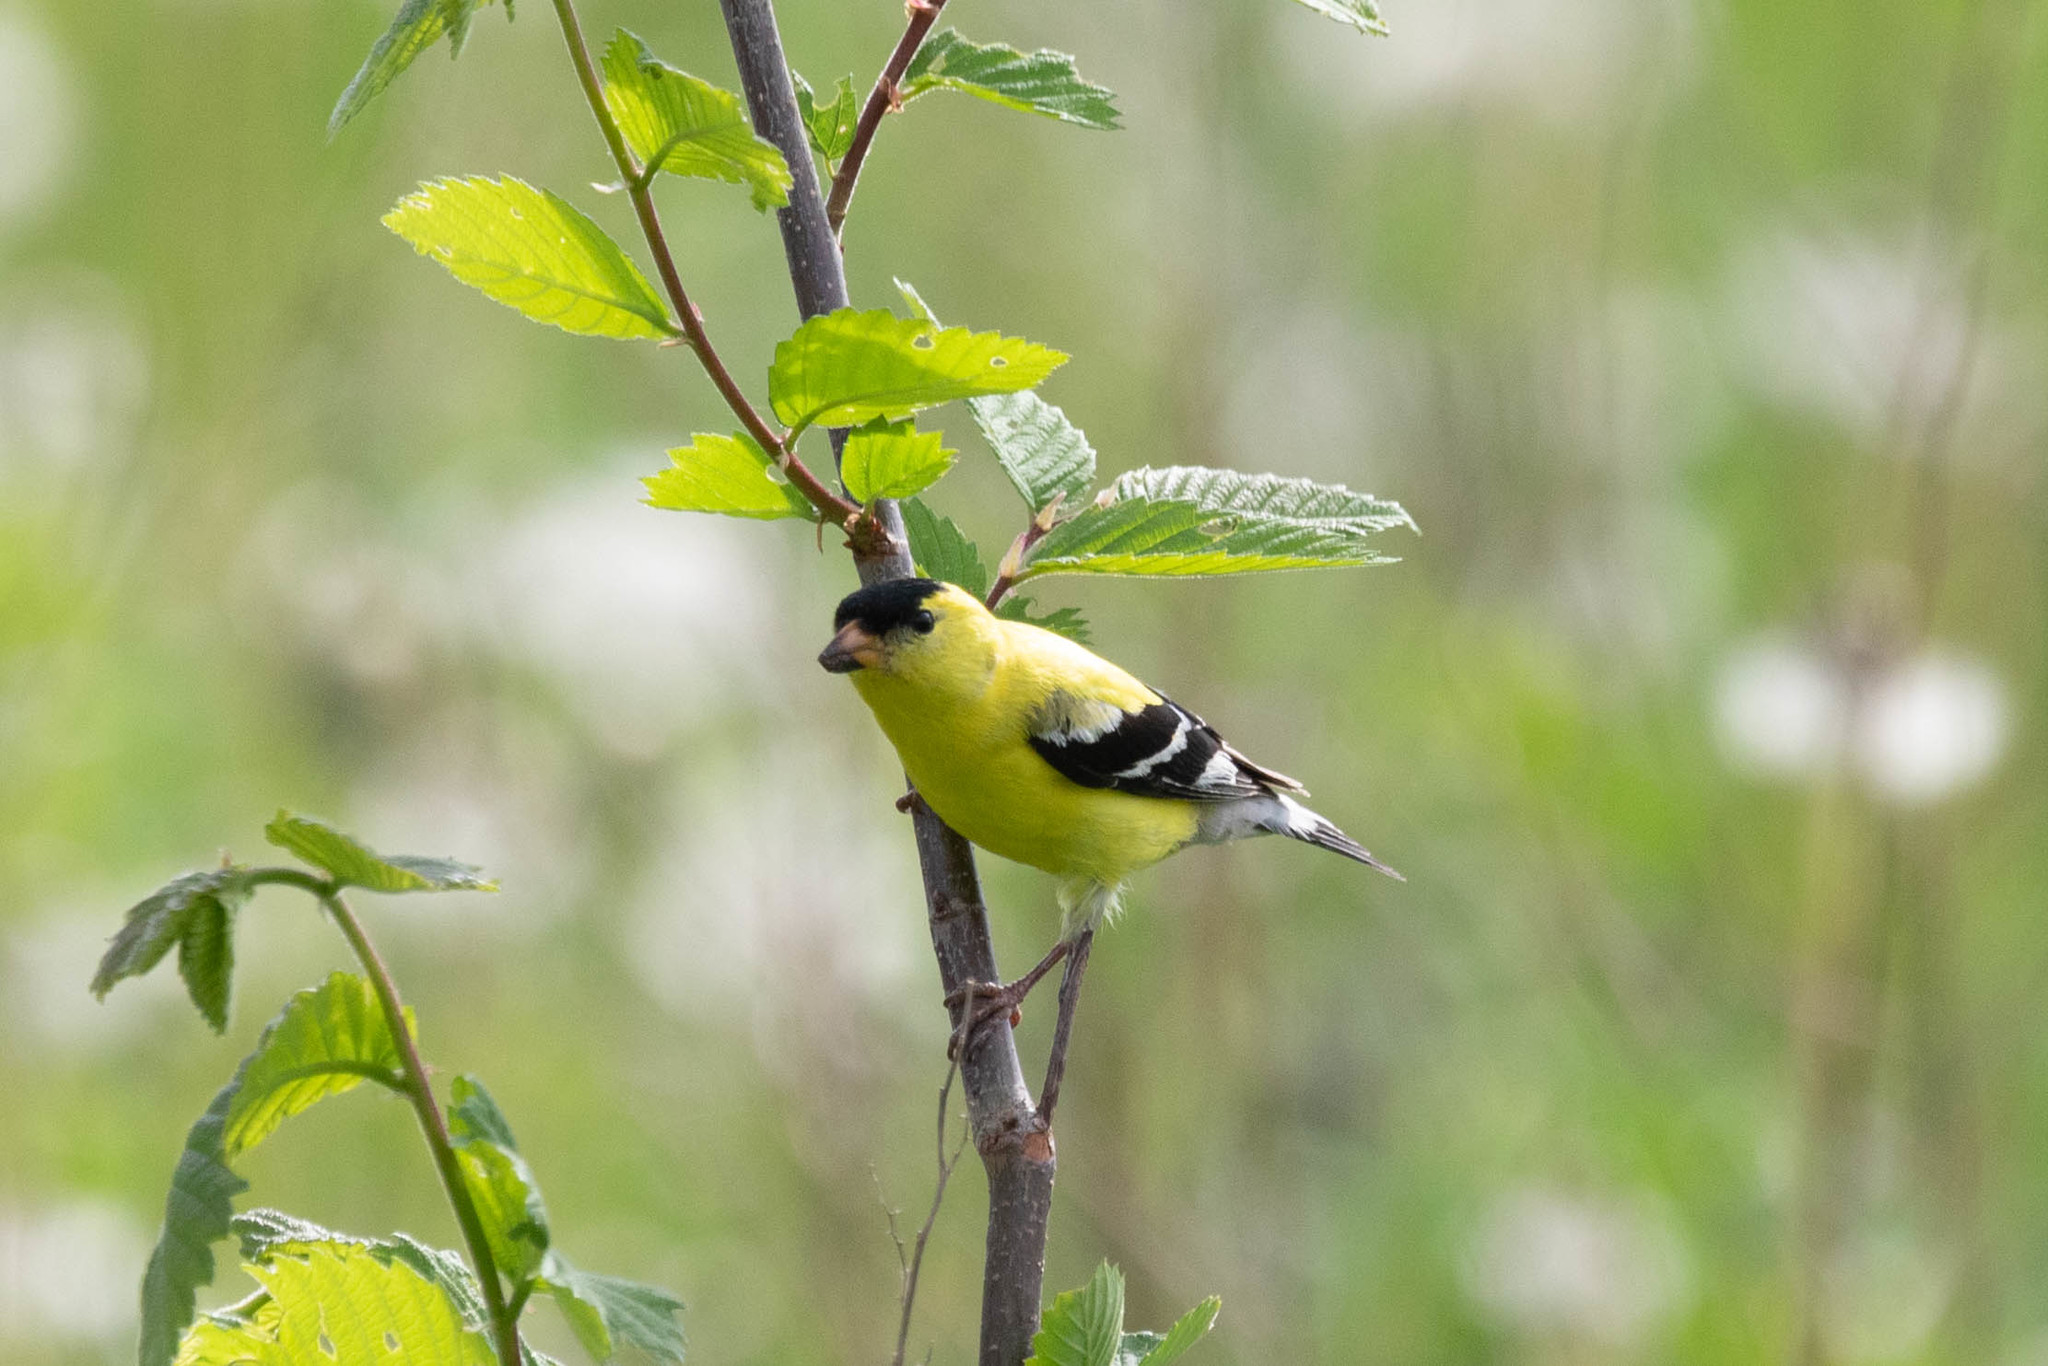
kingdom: Animalia
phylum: Chordata
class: Aves
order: Passeriformes
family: Fringillidae
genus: Spinus
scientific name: Spinus tristis
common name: American goldfinch
